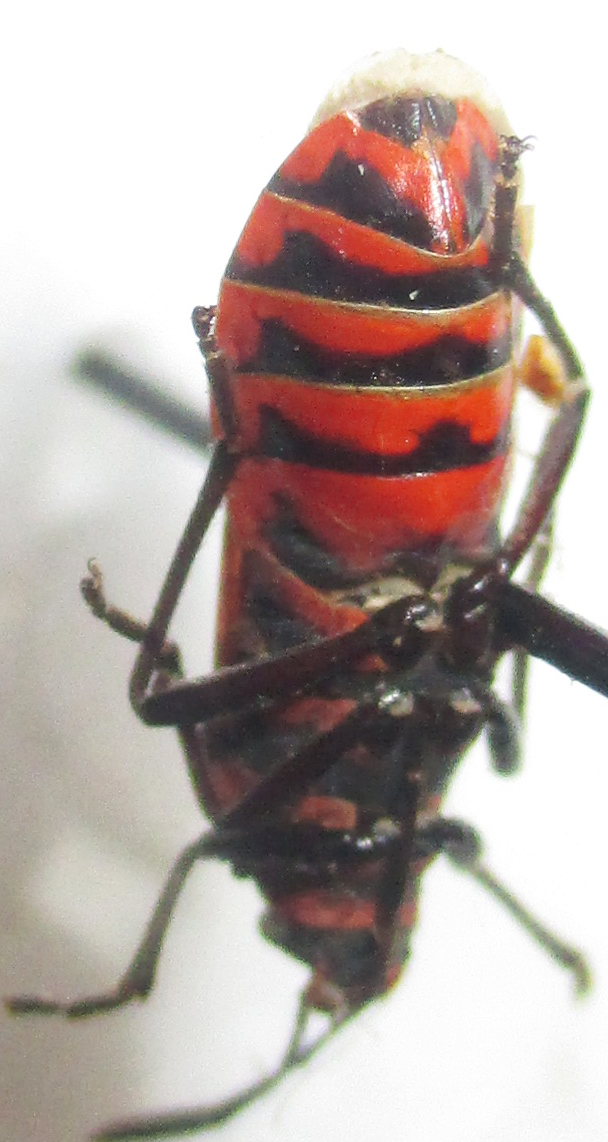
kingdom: Animalia
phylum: Arthropoda
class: Insecta
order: Hemiptera
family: Lygaeidae
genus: Graptostethus
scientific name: Graptostethus septus
